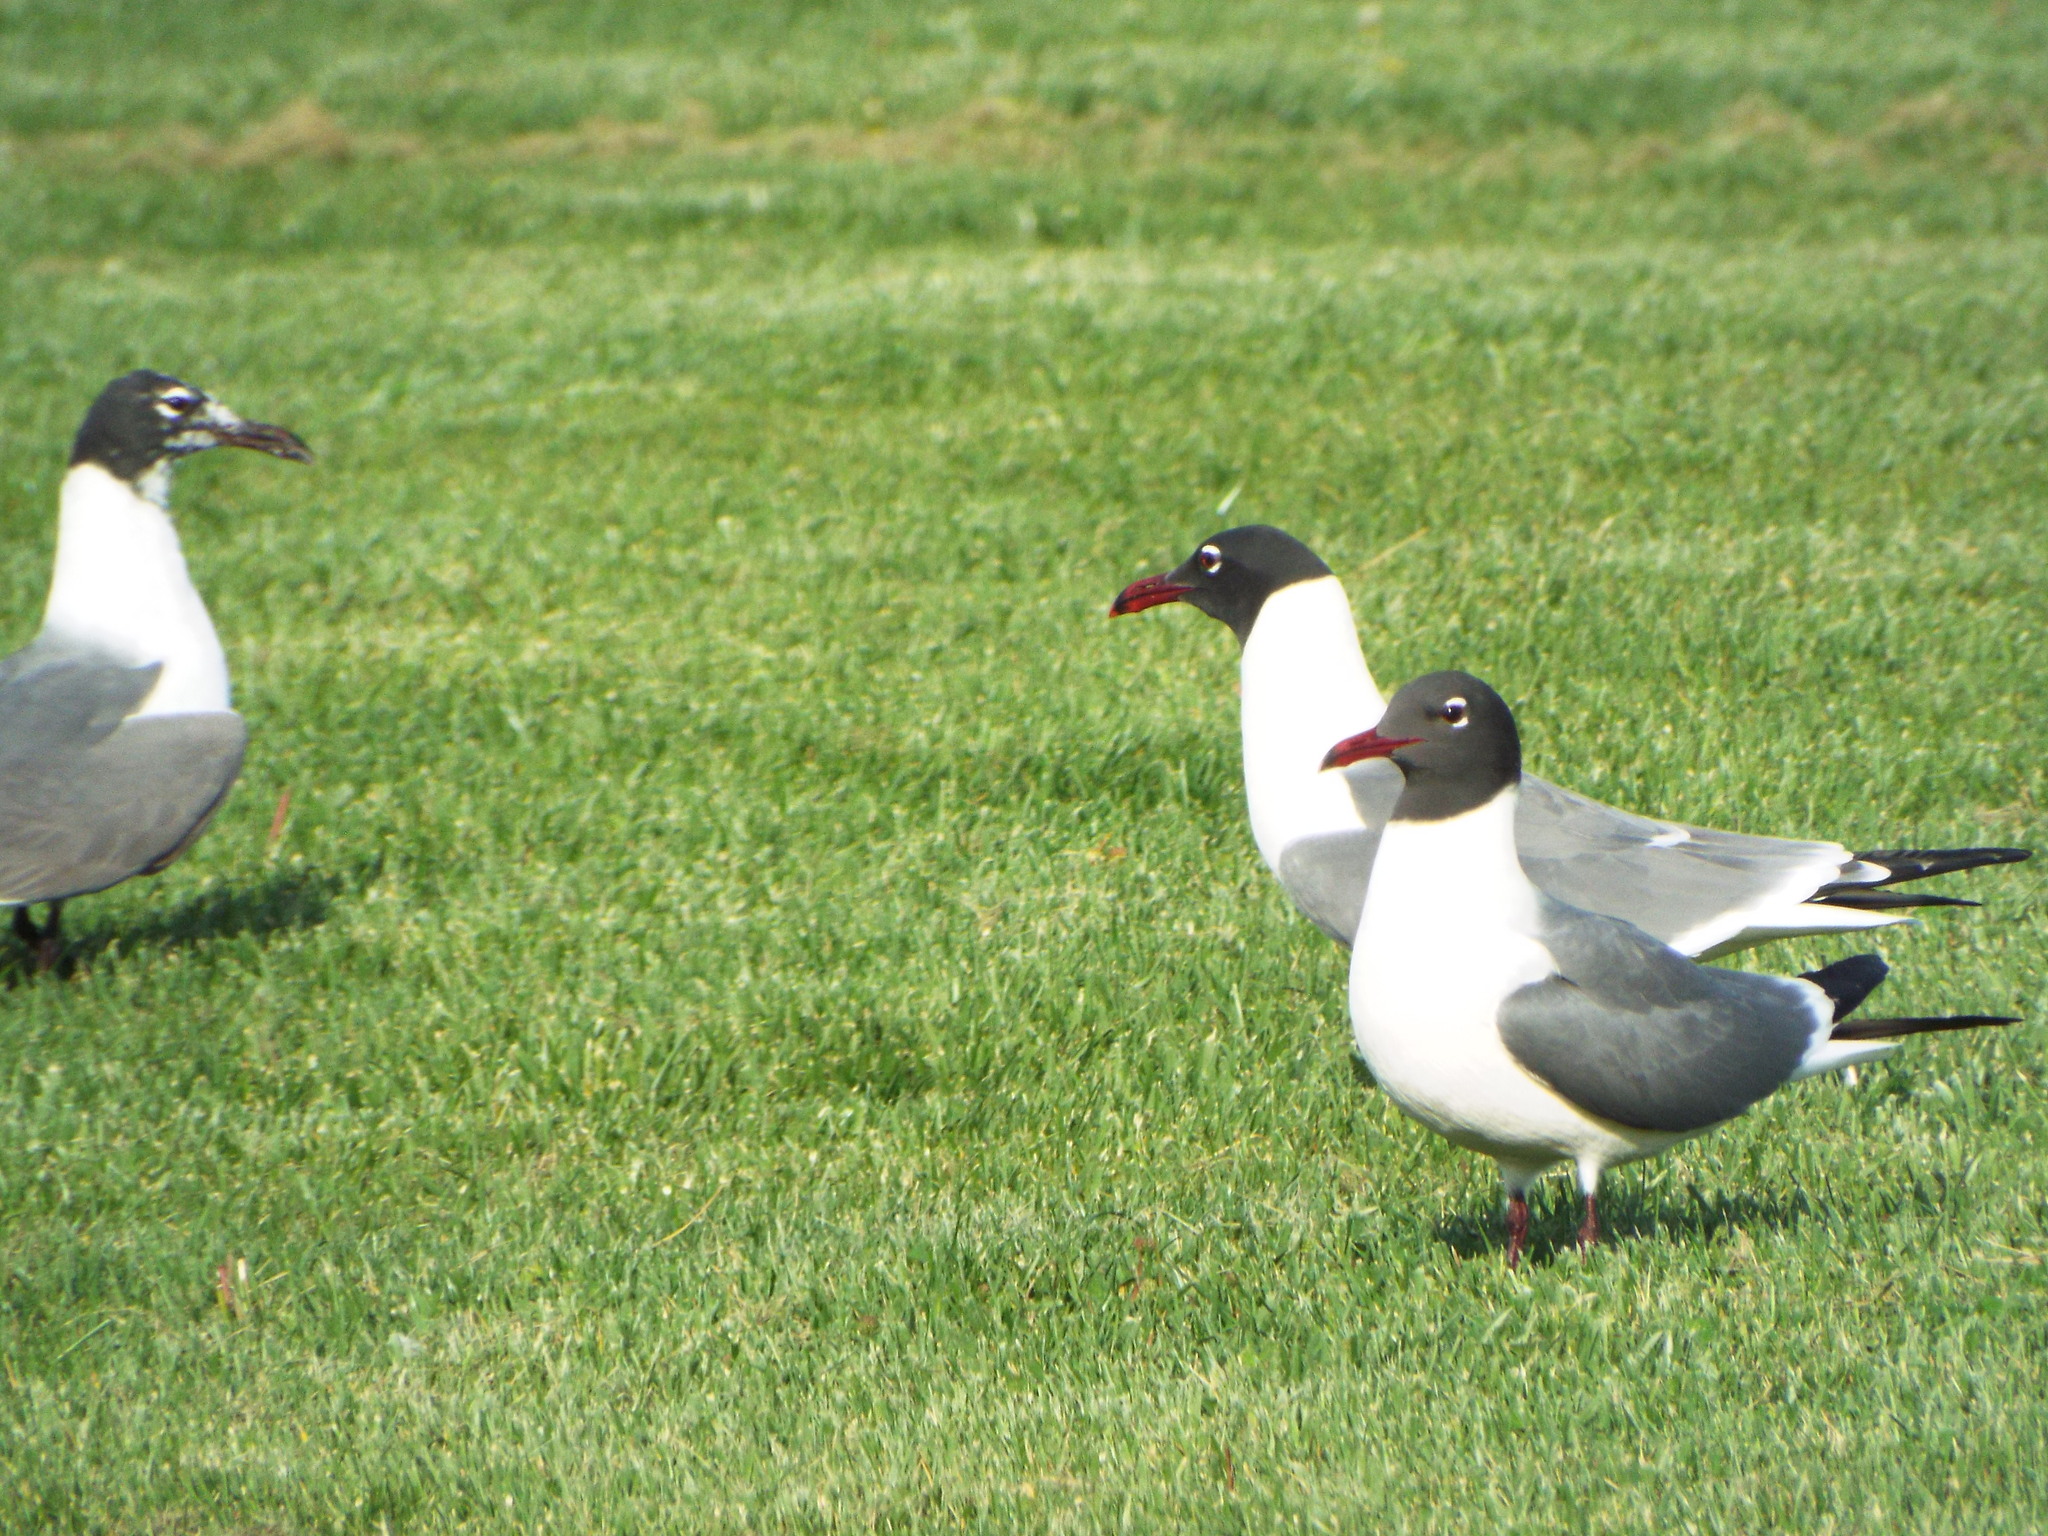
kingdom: Animalia
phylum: Chordata
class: Aves
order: Charadriiformes
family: Laridae
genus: Leucophaeus
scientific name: Leucophaeus atricilla
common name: Laughing gull
